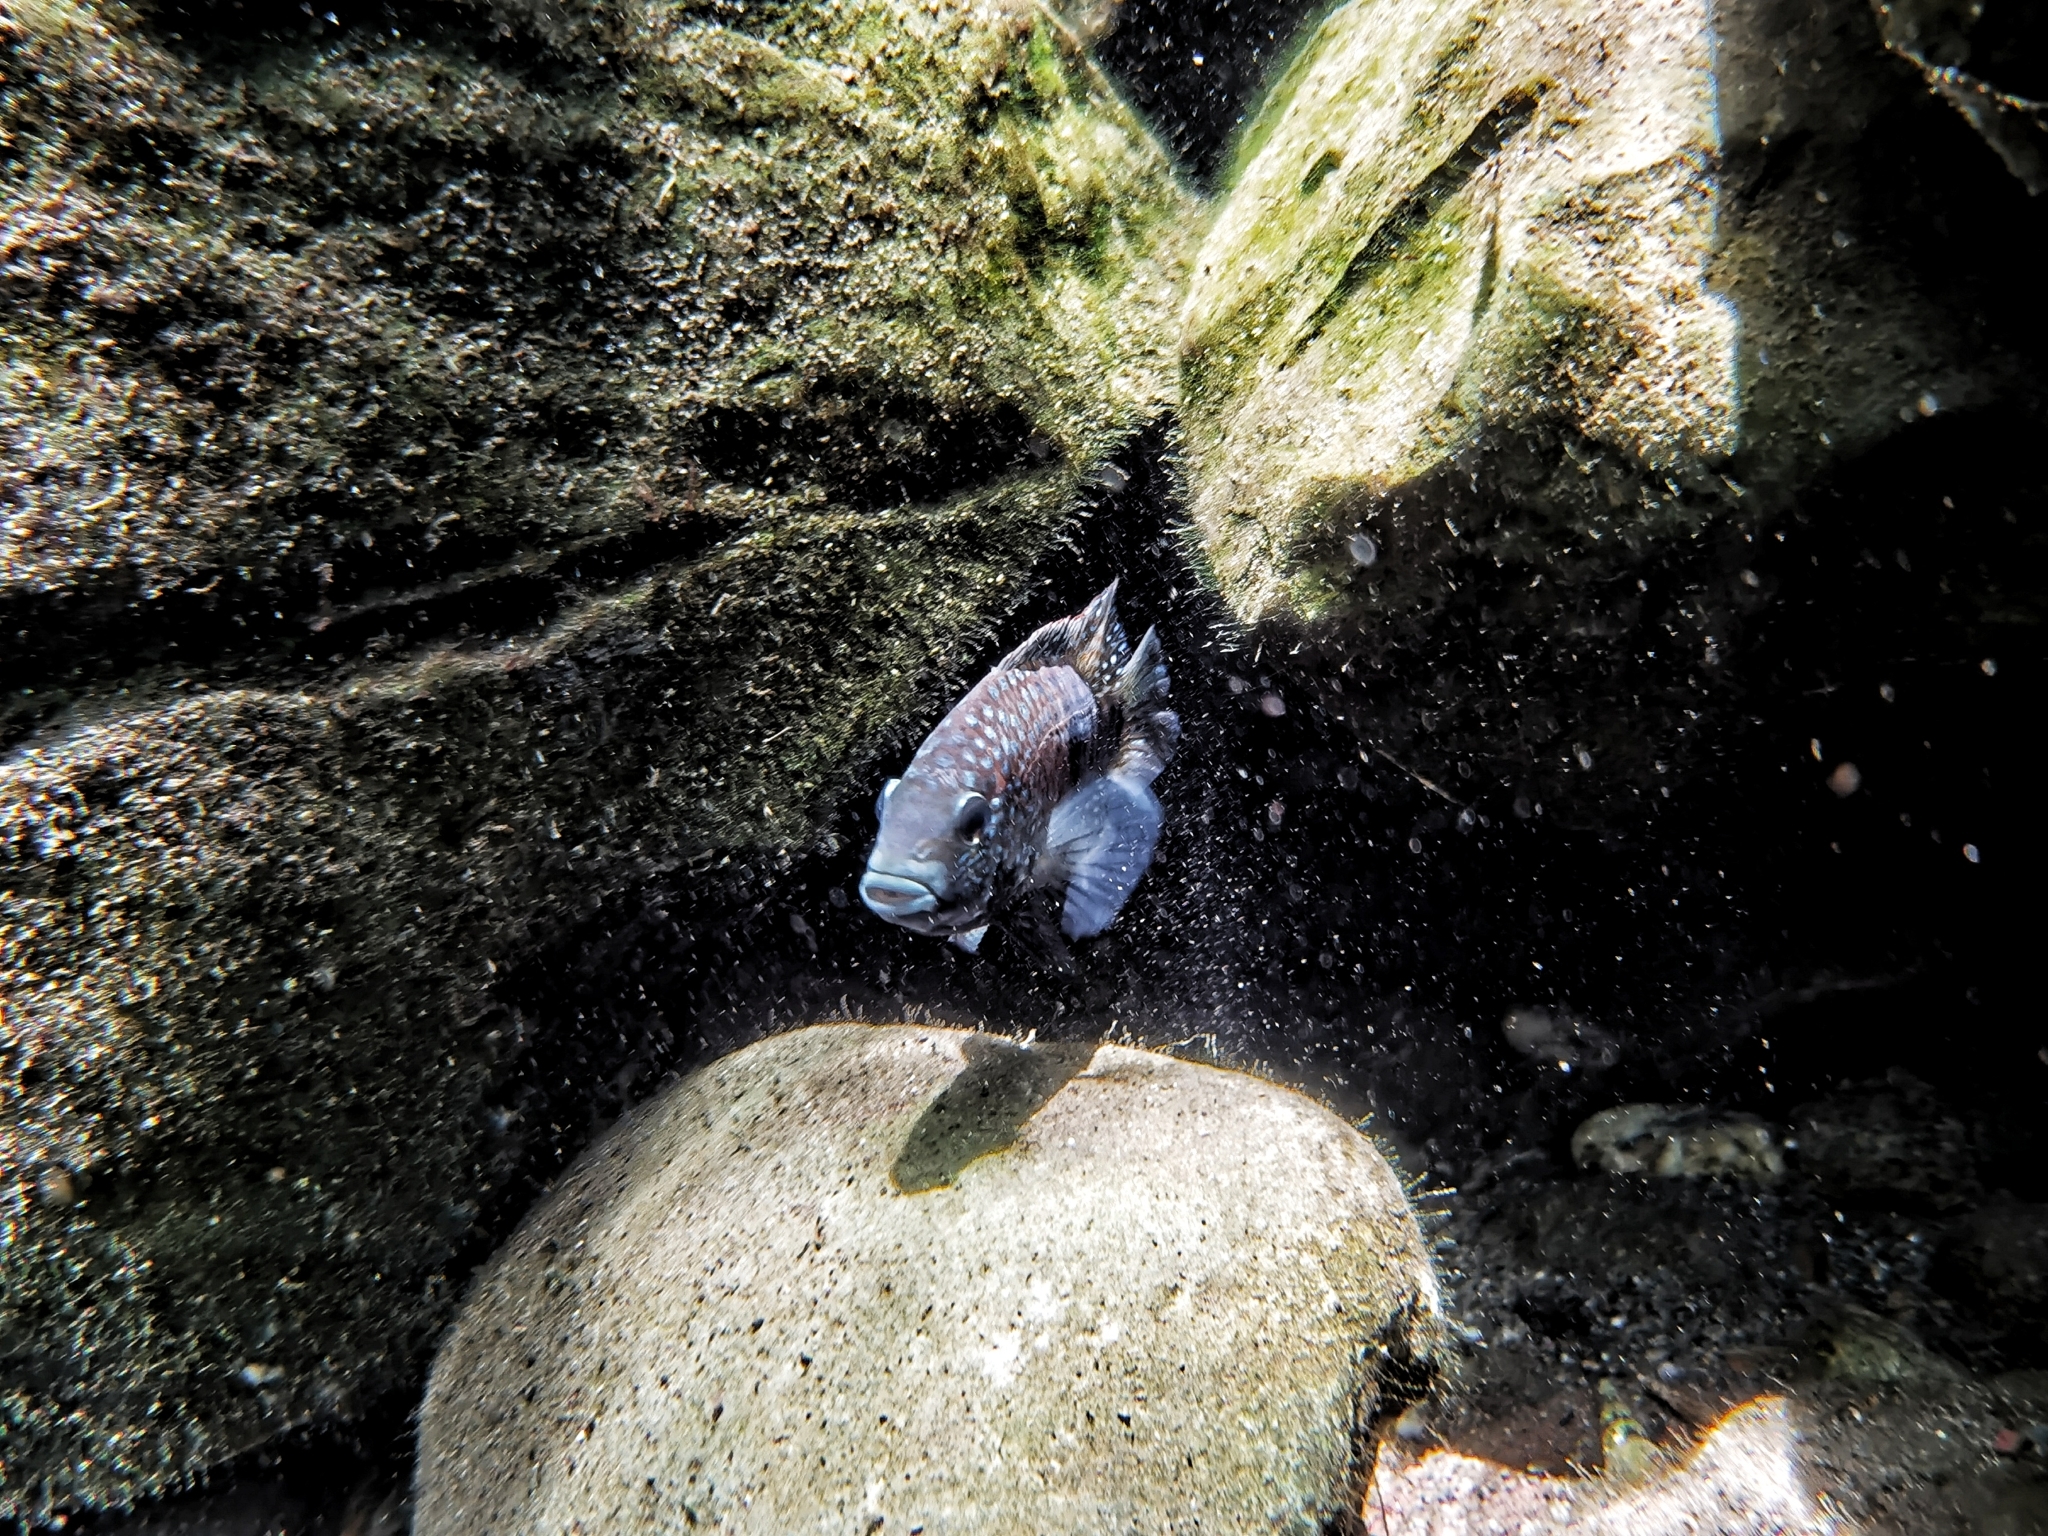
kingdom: Animalia
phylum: Chordata
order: Perciformes
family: Cichlidae
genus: Herichthys
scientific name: Herichthys carpintis
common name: Lowland cichlid
